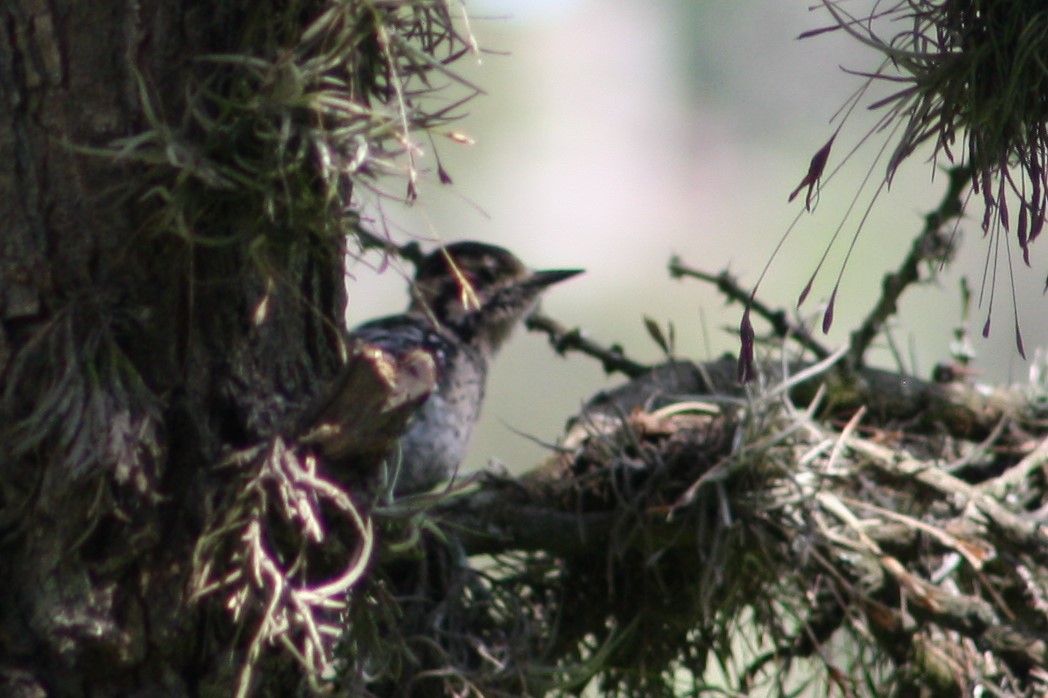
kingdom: Animalia
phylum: Chordata
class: Aves
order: Piciformes
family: Picidae
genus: Dryobates
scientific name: Dryobates scalaris
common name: Ladder-backed woodpecker
